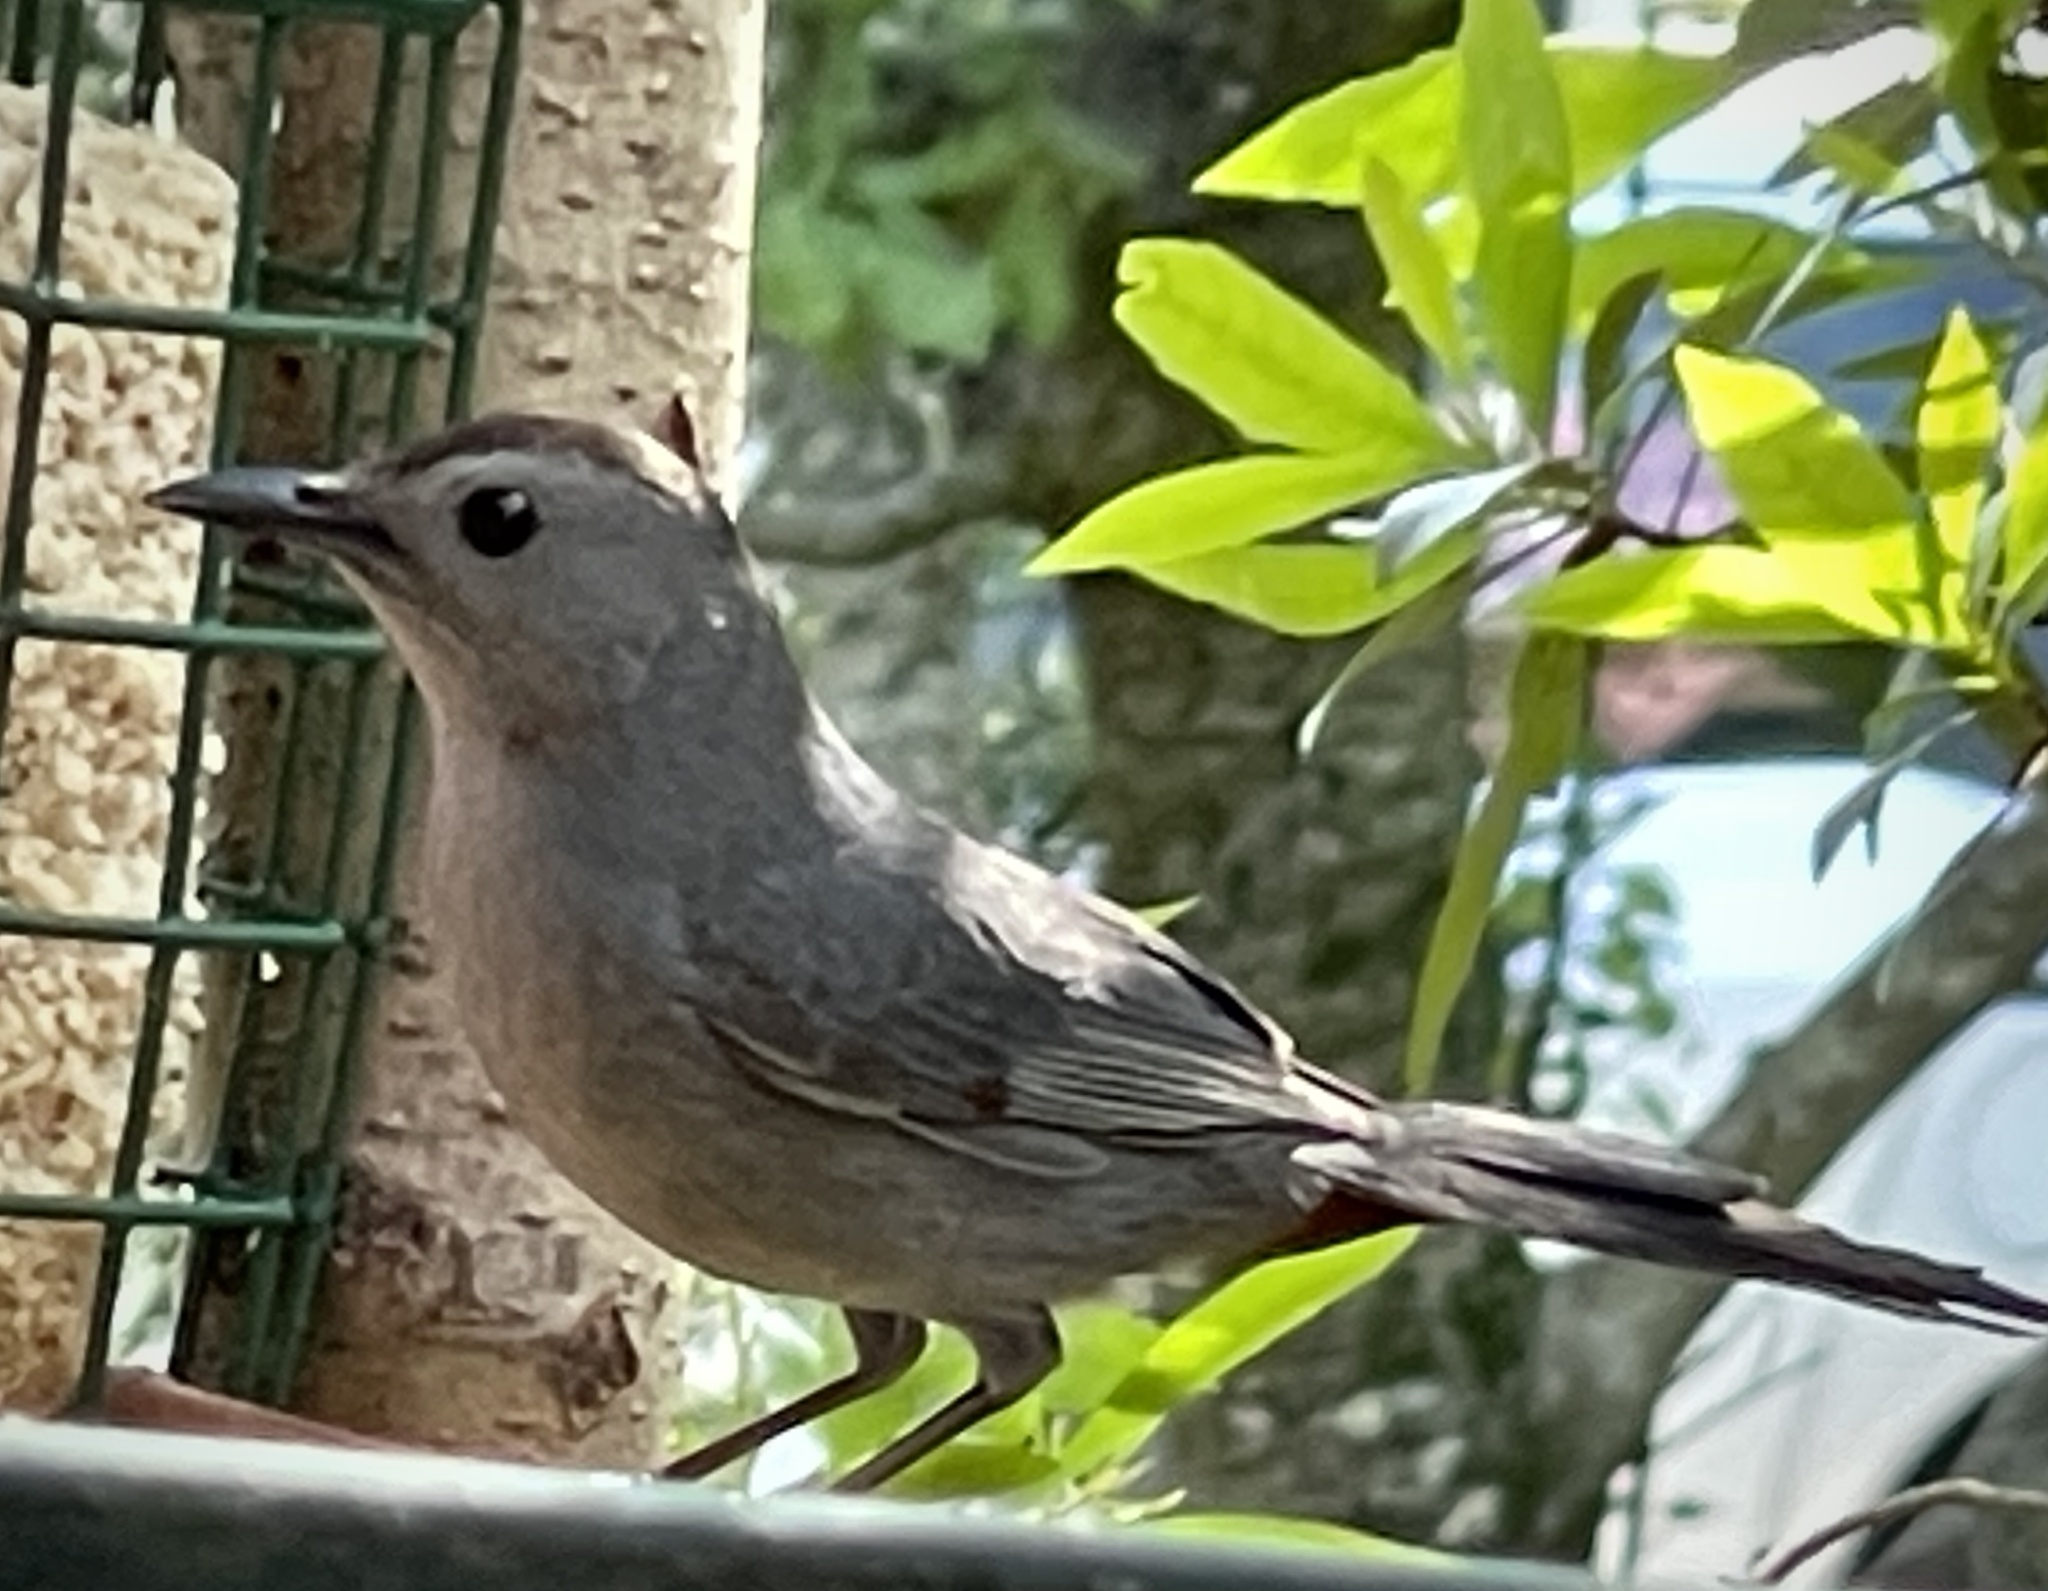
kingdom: Animalia
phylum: Chordata
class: Aves
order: Passeriformes
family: Mimidae
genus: Dumetella
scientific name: Dumetella carolinensis
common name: Gray catbird
